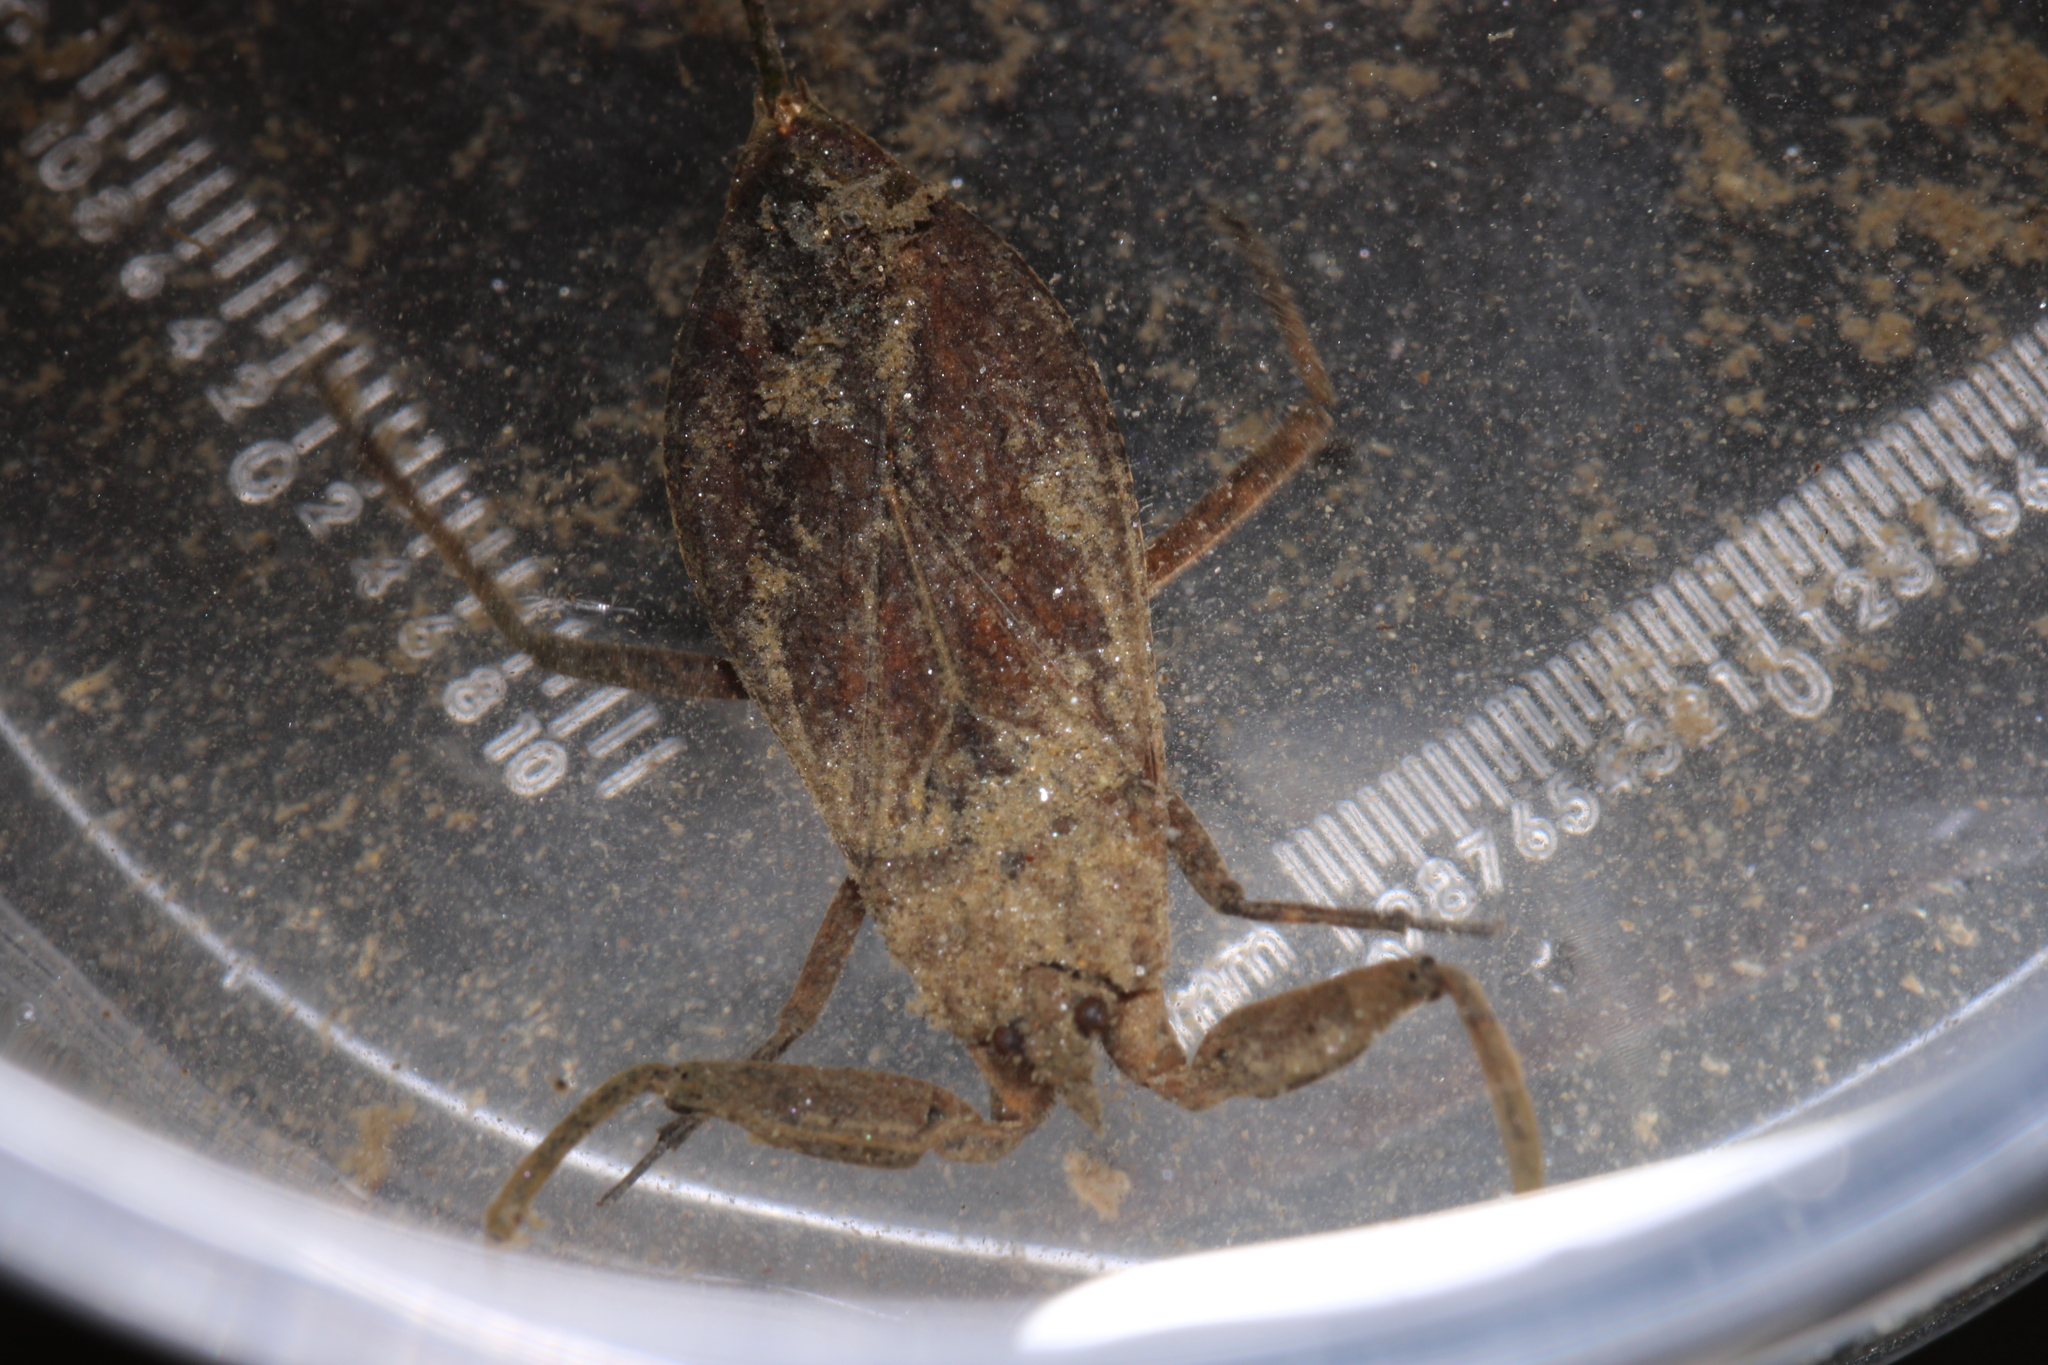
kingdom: Animalia
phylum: Arthropoda
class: Insecta
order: Hemiptera
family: Nepidae
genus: Nepa
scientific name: Nepa cinerea
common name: Water scorpion
